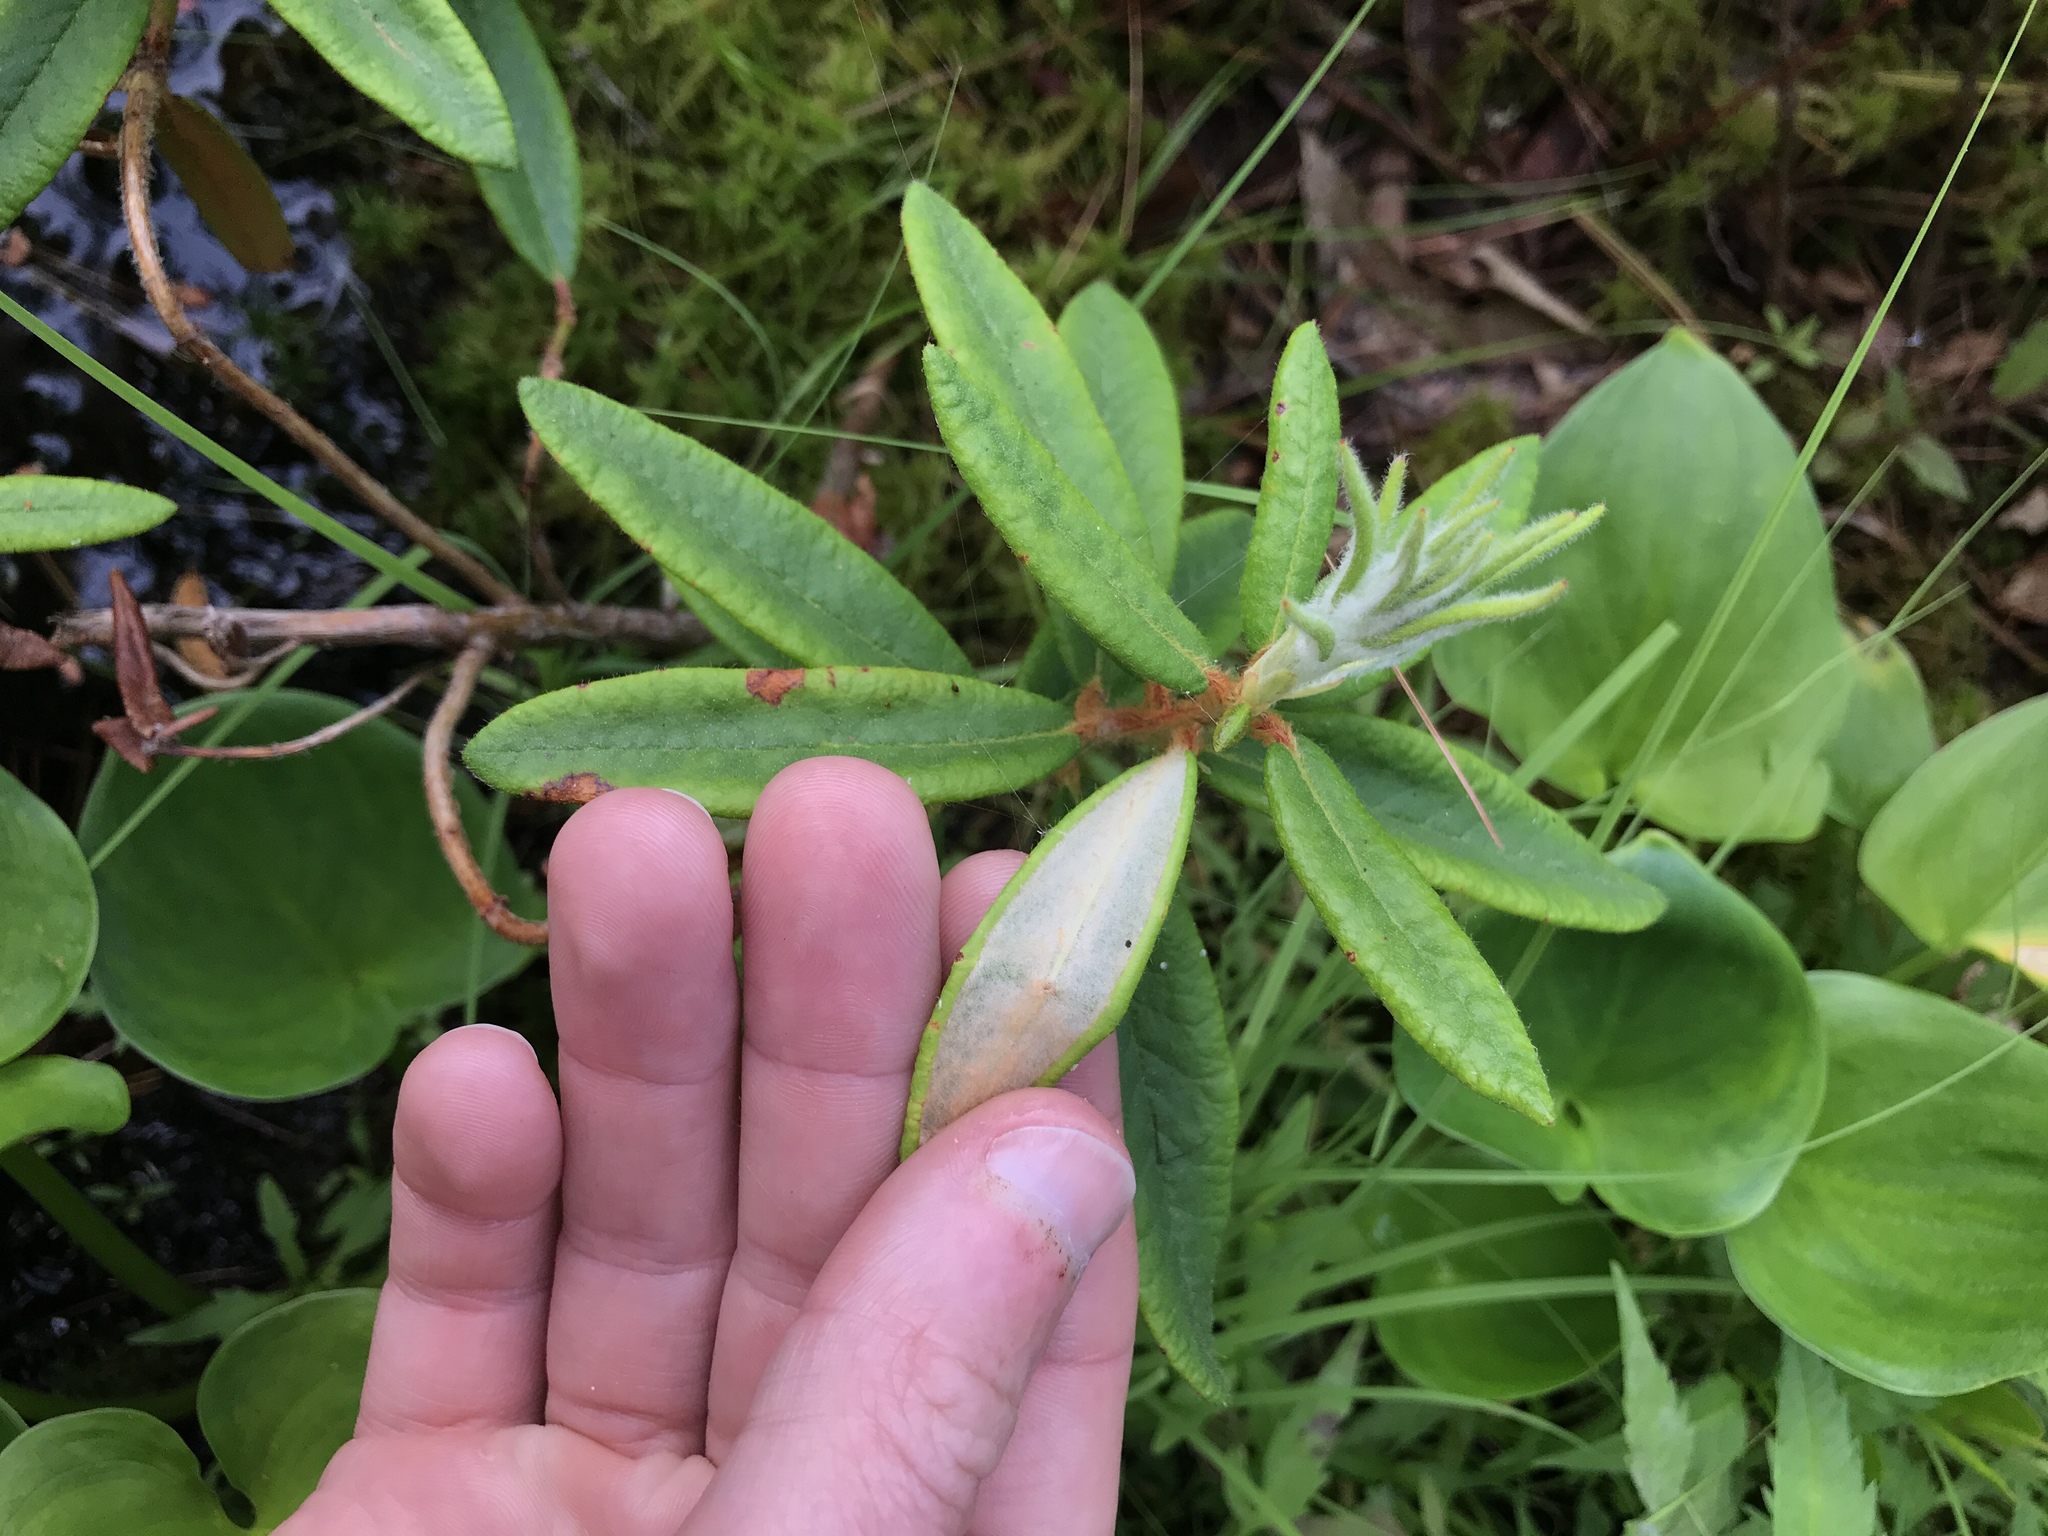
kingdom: Plantae
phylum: Tracheophyta
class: Magnoliopsida
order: Ericales
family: Ericaceae
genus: Rhododendron
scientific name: Rhododendron groenlandicum
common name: Bog labrador tea
